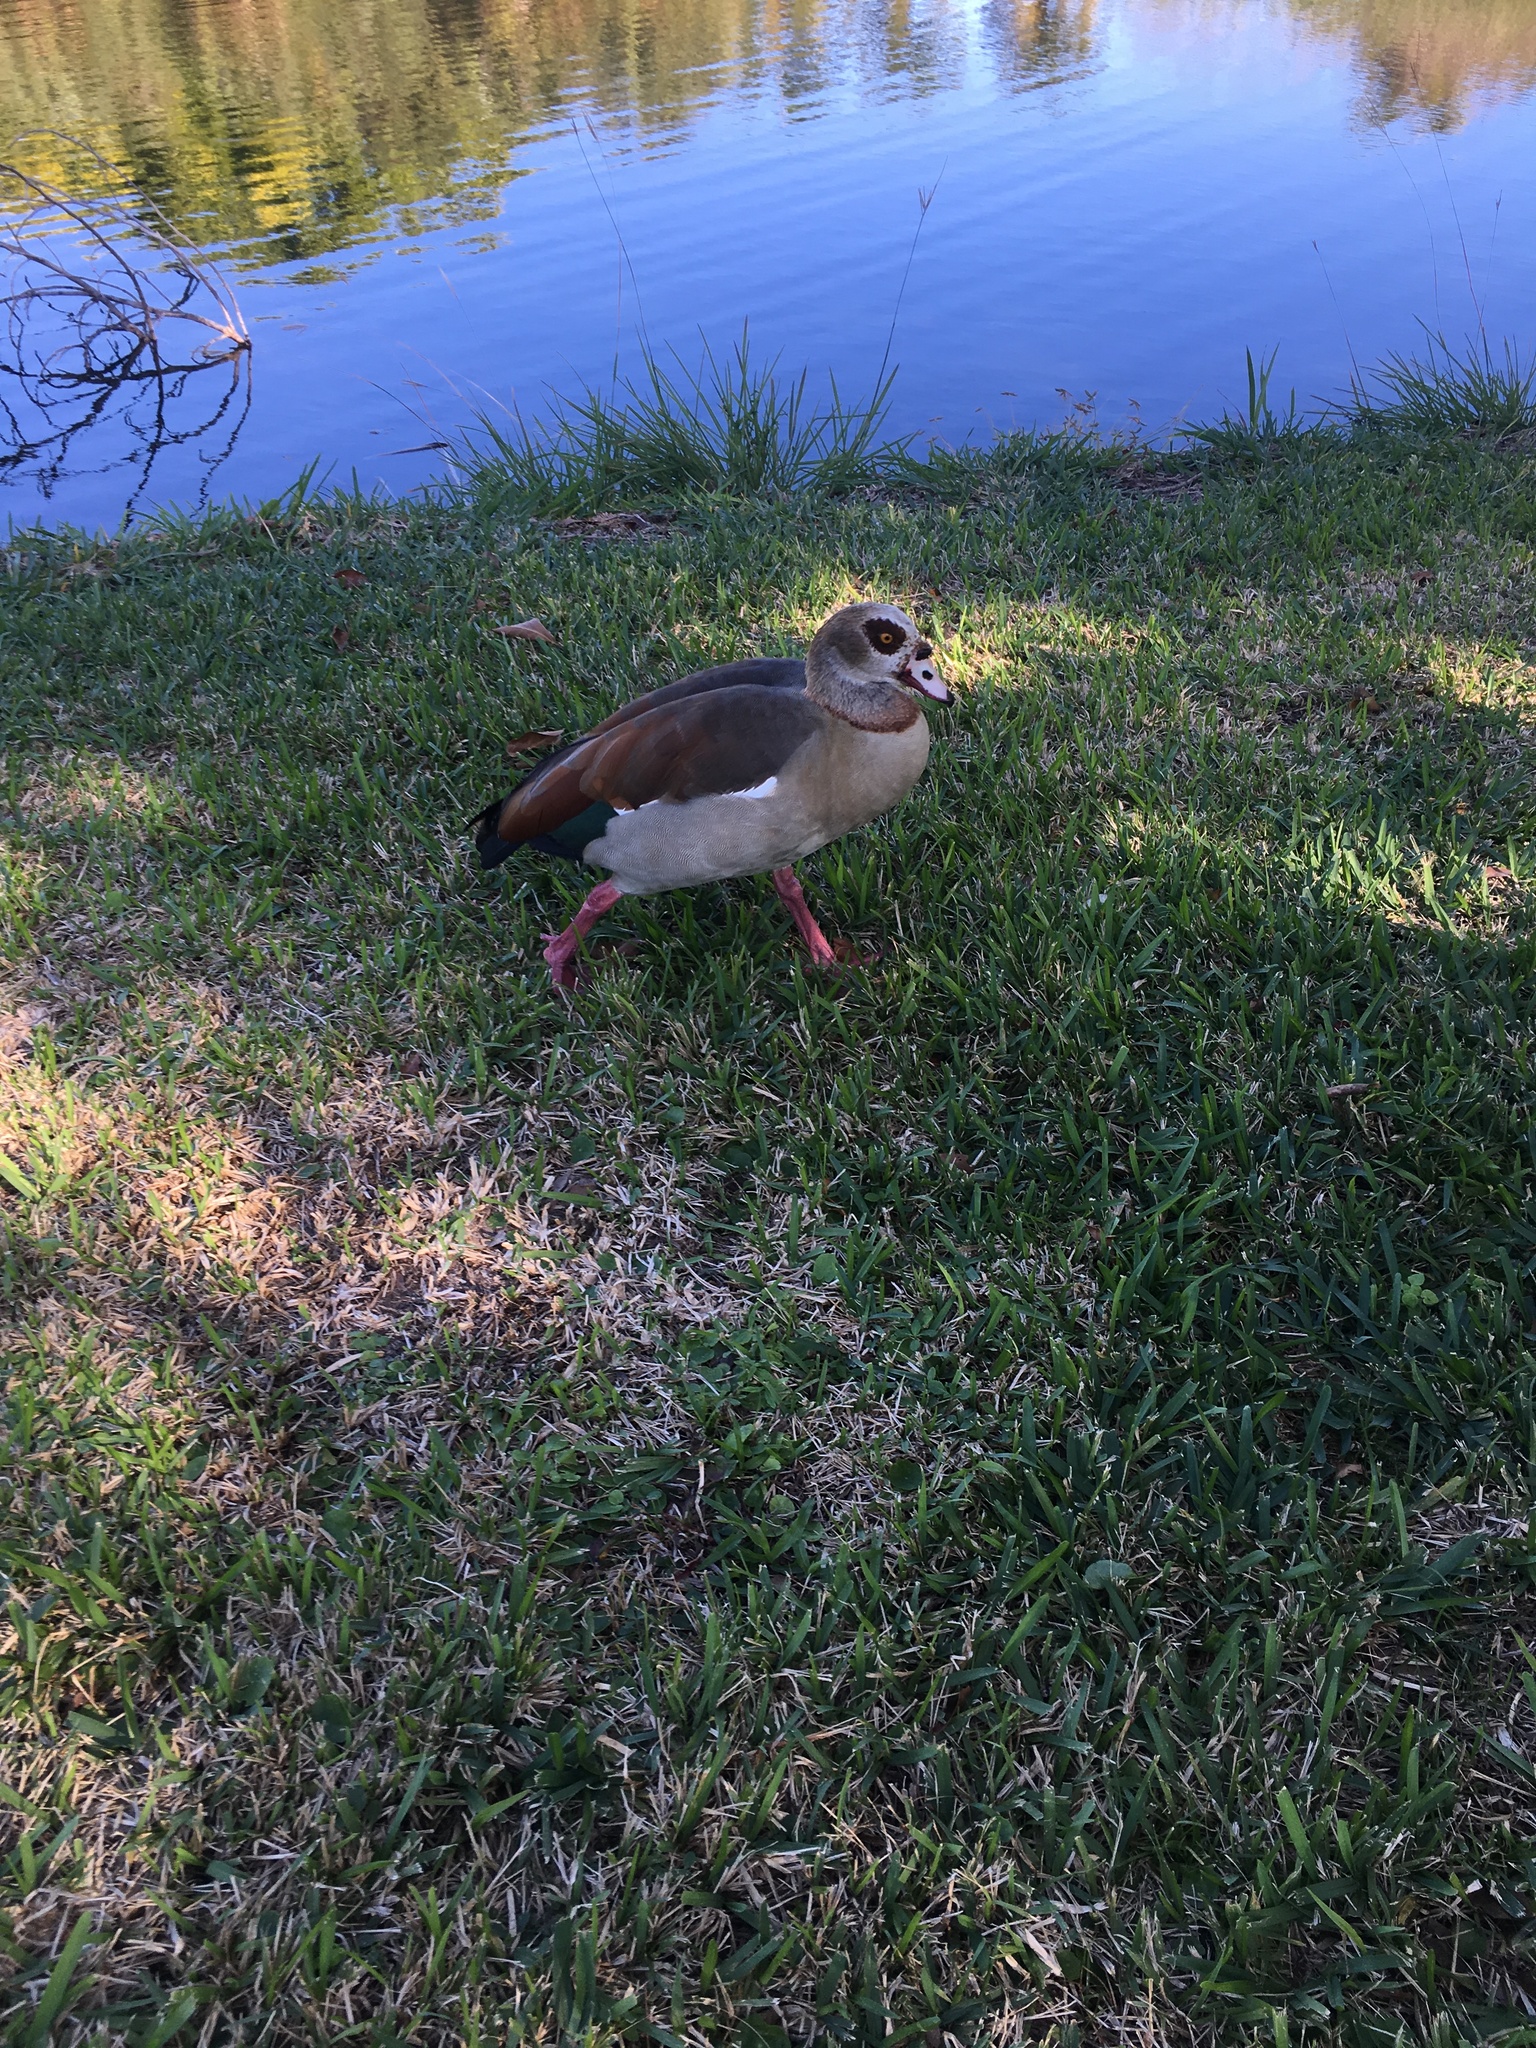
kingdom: Animalia
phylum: Chordata
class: Aves
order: Anseriformes
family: Anatidae
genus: Alopochen
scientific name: Alopochen aegyptiaca
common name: Egyptian goose
